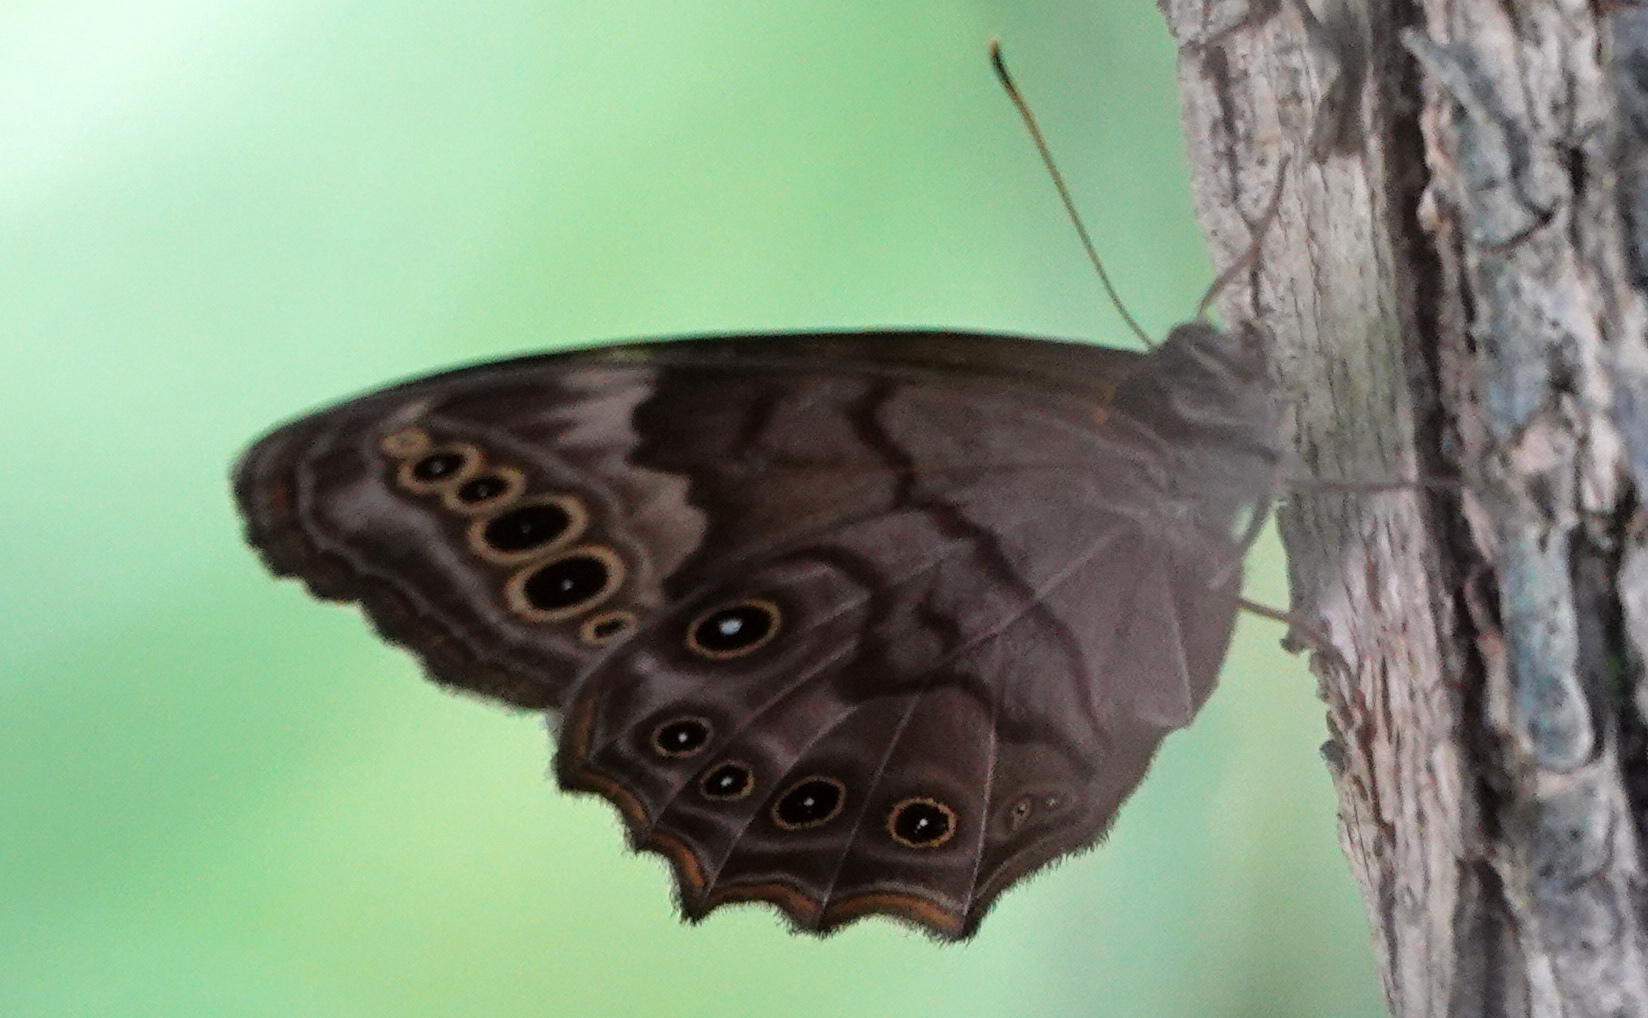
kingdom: Animalia
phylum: Arthropoda
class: Insecta
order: Lepidoptera
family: Nymphalidae
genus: Lethe
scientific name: Lethe anthedon
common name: Northern pearly-eye
